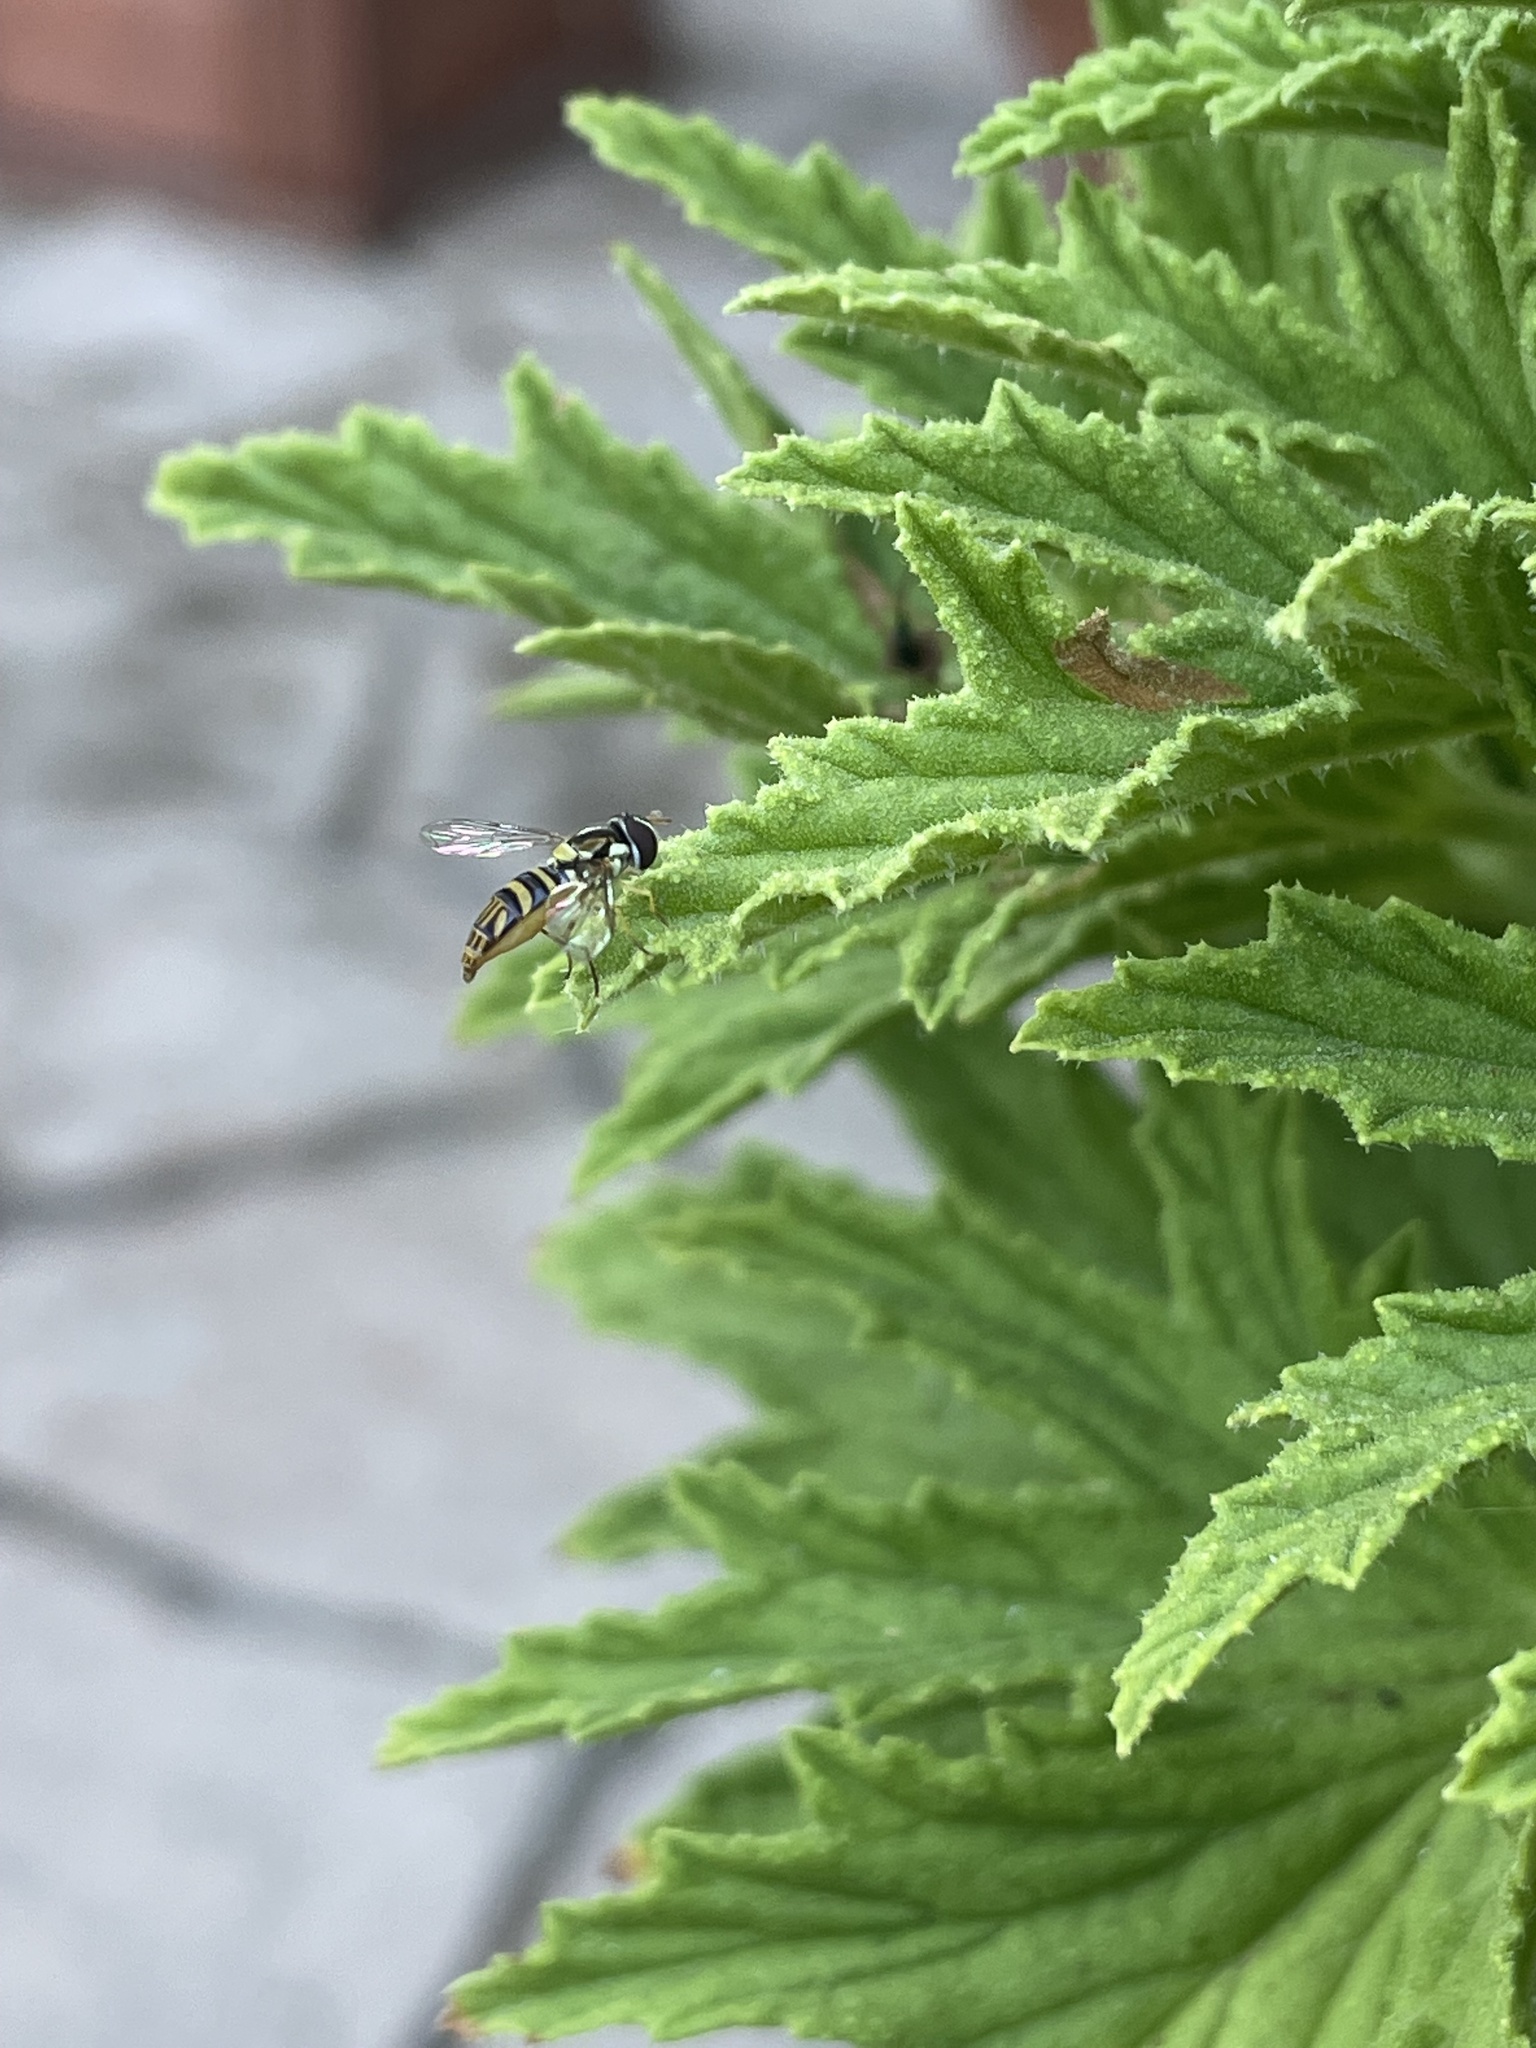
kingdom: Animalia
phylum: Arthropoda
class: Insecta
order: Diptera
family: Syrphidae
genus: Allograpta
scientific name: Allograpta obliqua
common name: Common oblique syrphid
